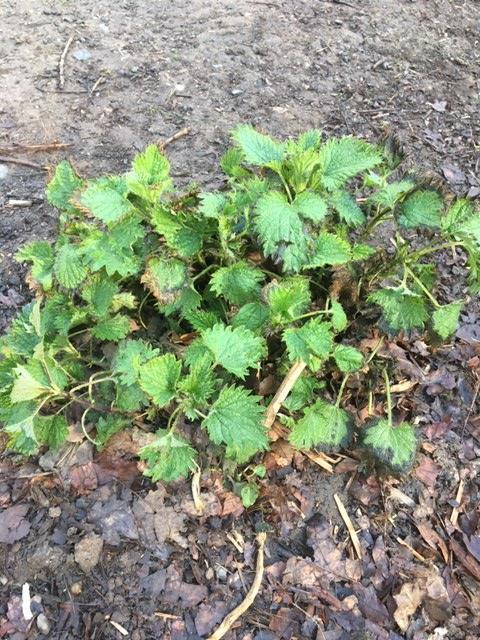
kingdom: Plantae
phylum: Tracheophyta
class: Magnoliopsida
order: Rosales
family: Urticaceae
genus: Urtica
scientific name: Urtica dioica
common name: Common nettle
